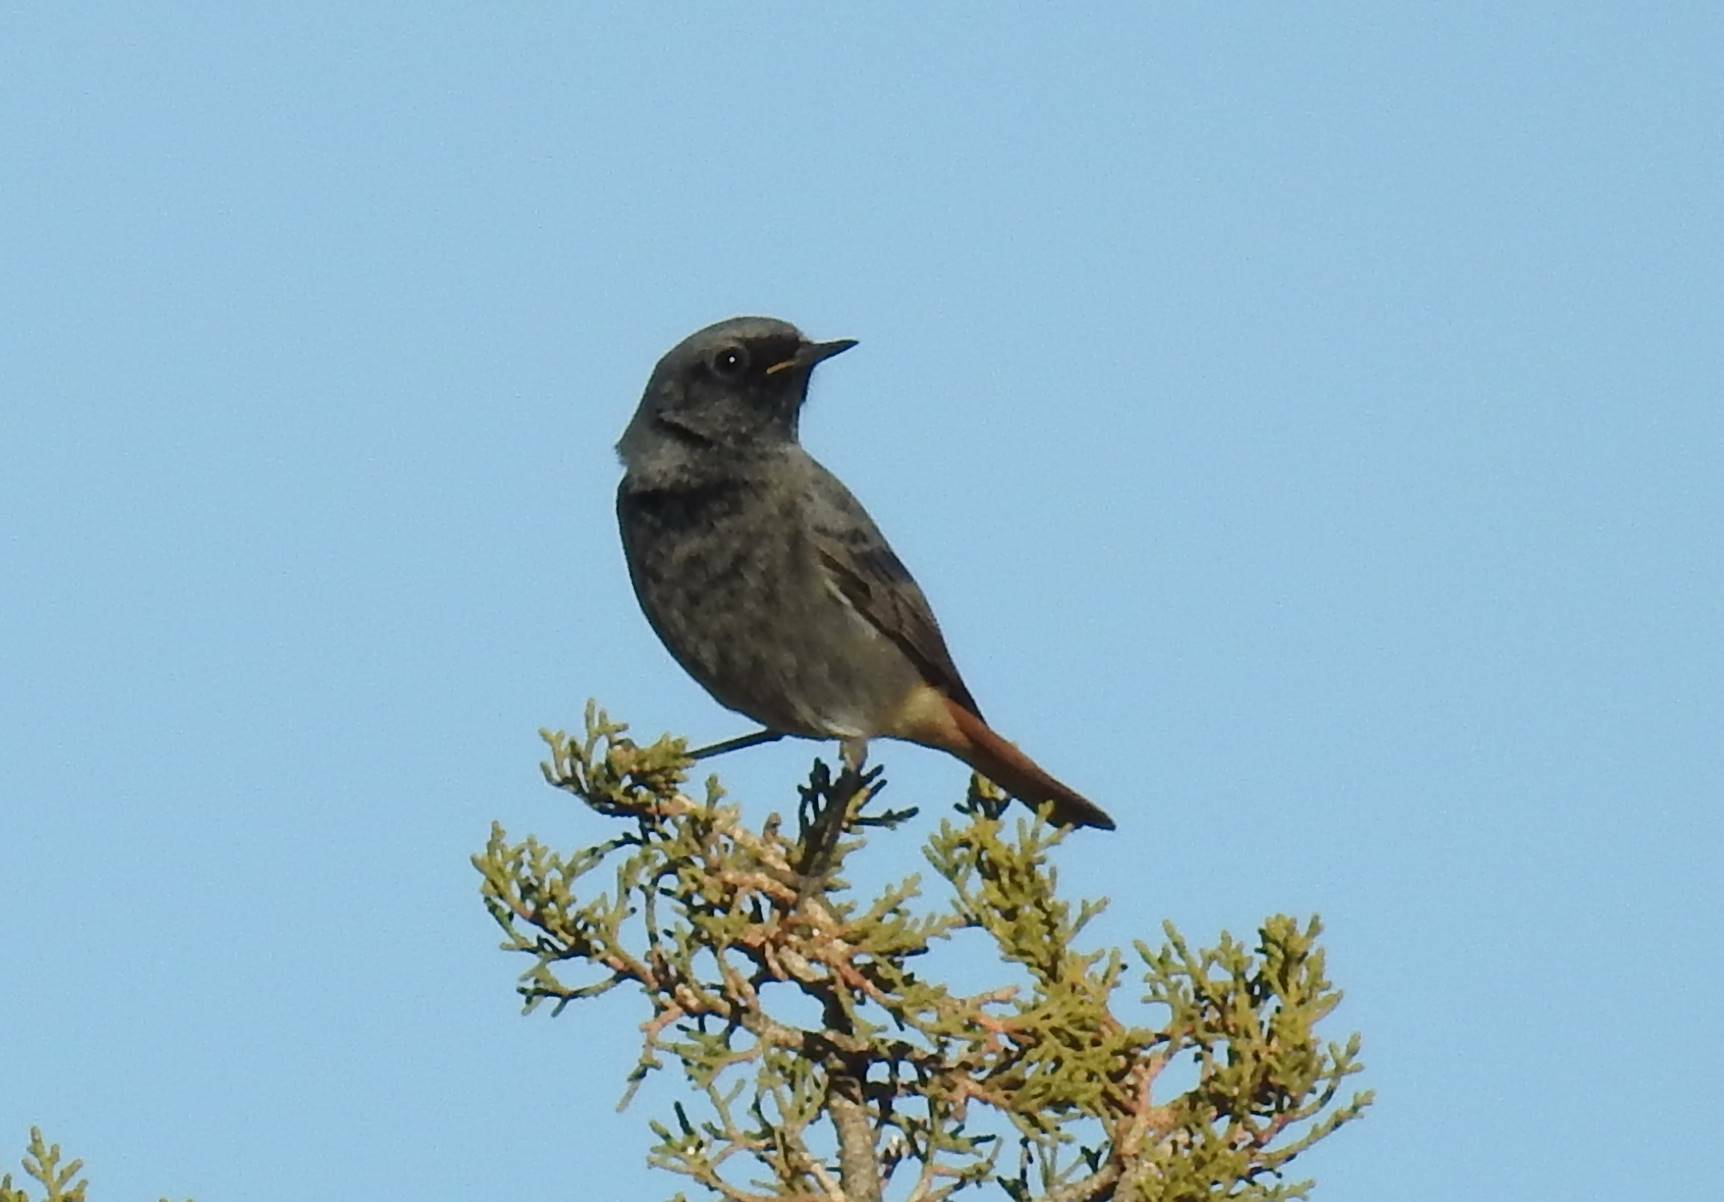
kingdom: Animalia
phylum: Chordata
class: Aves
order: Passeriformes
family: Muscicapidae
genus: Phoenicurus
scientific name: Phoenicurus ochruros
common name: Black redstart
